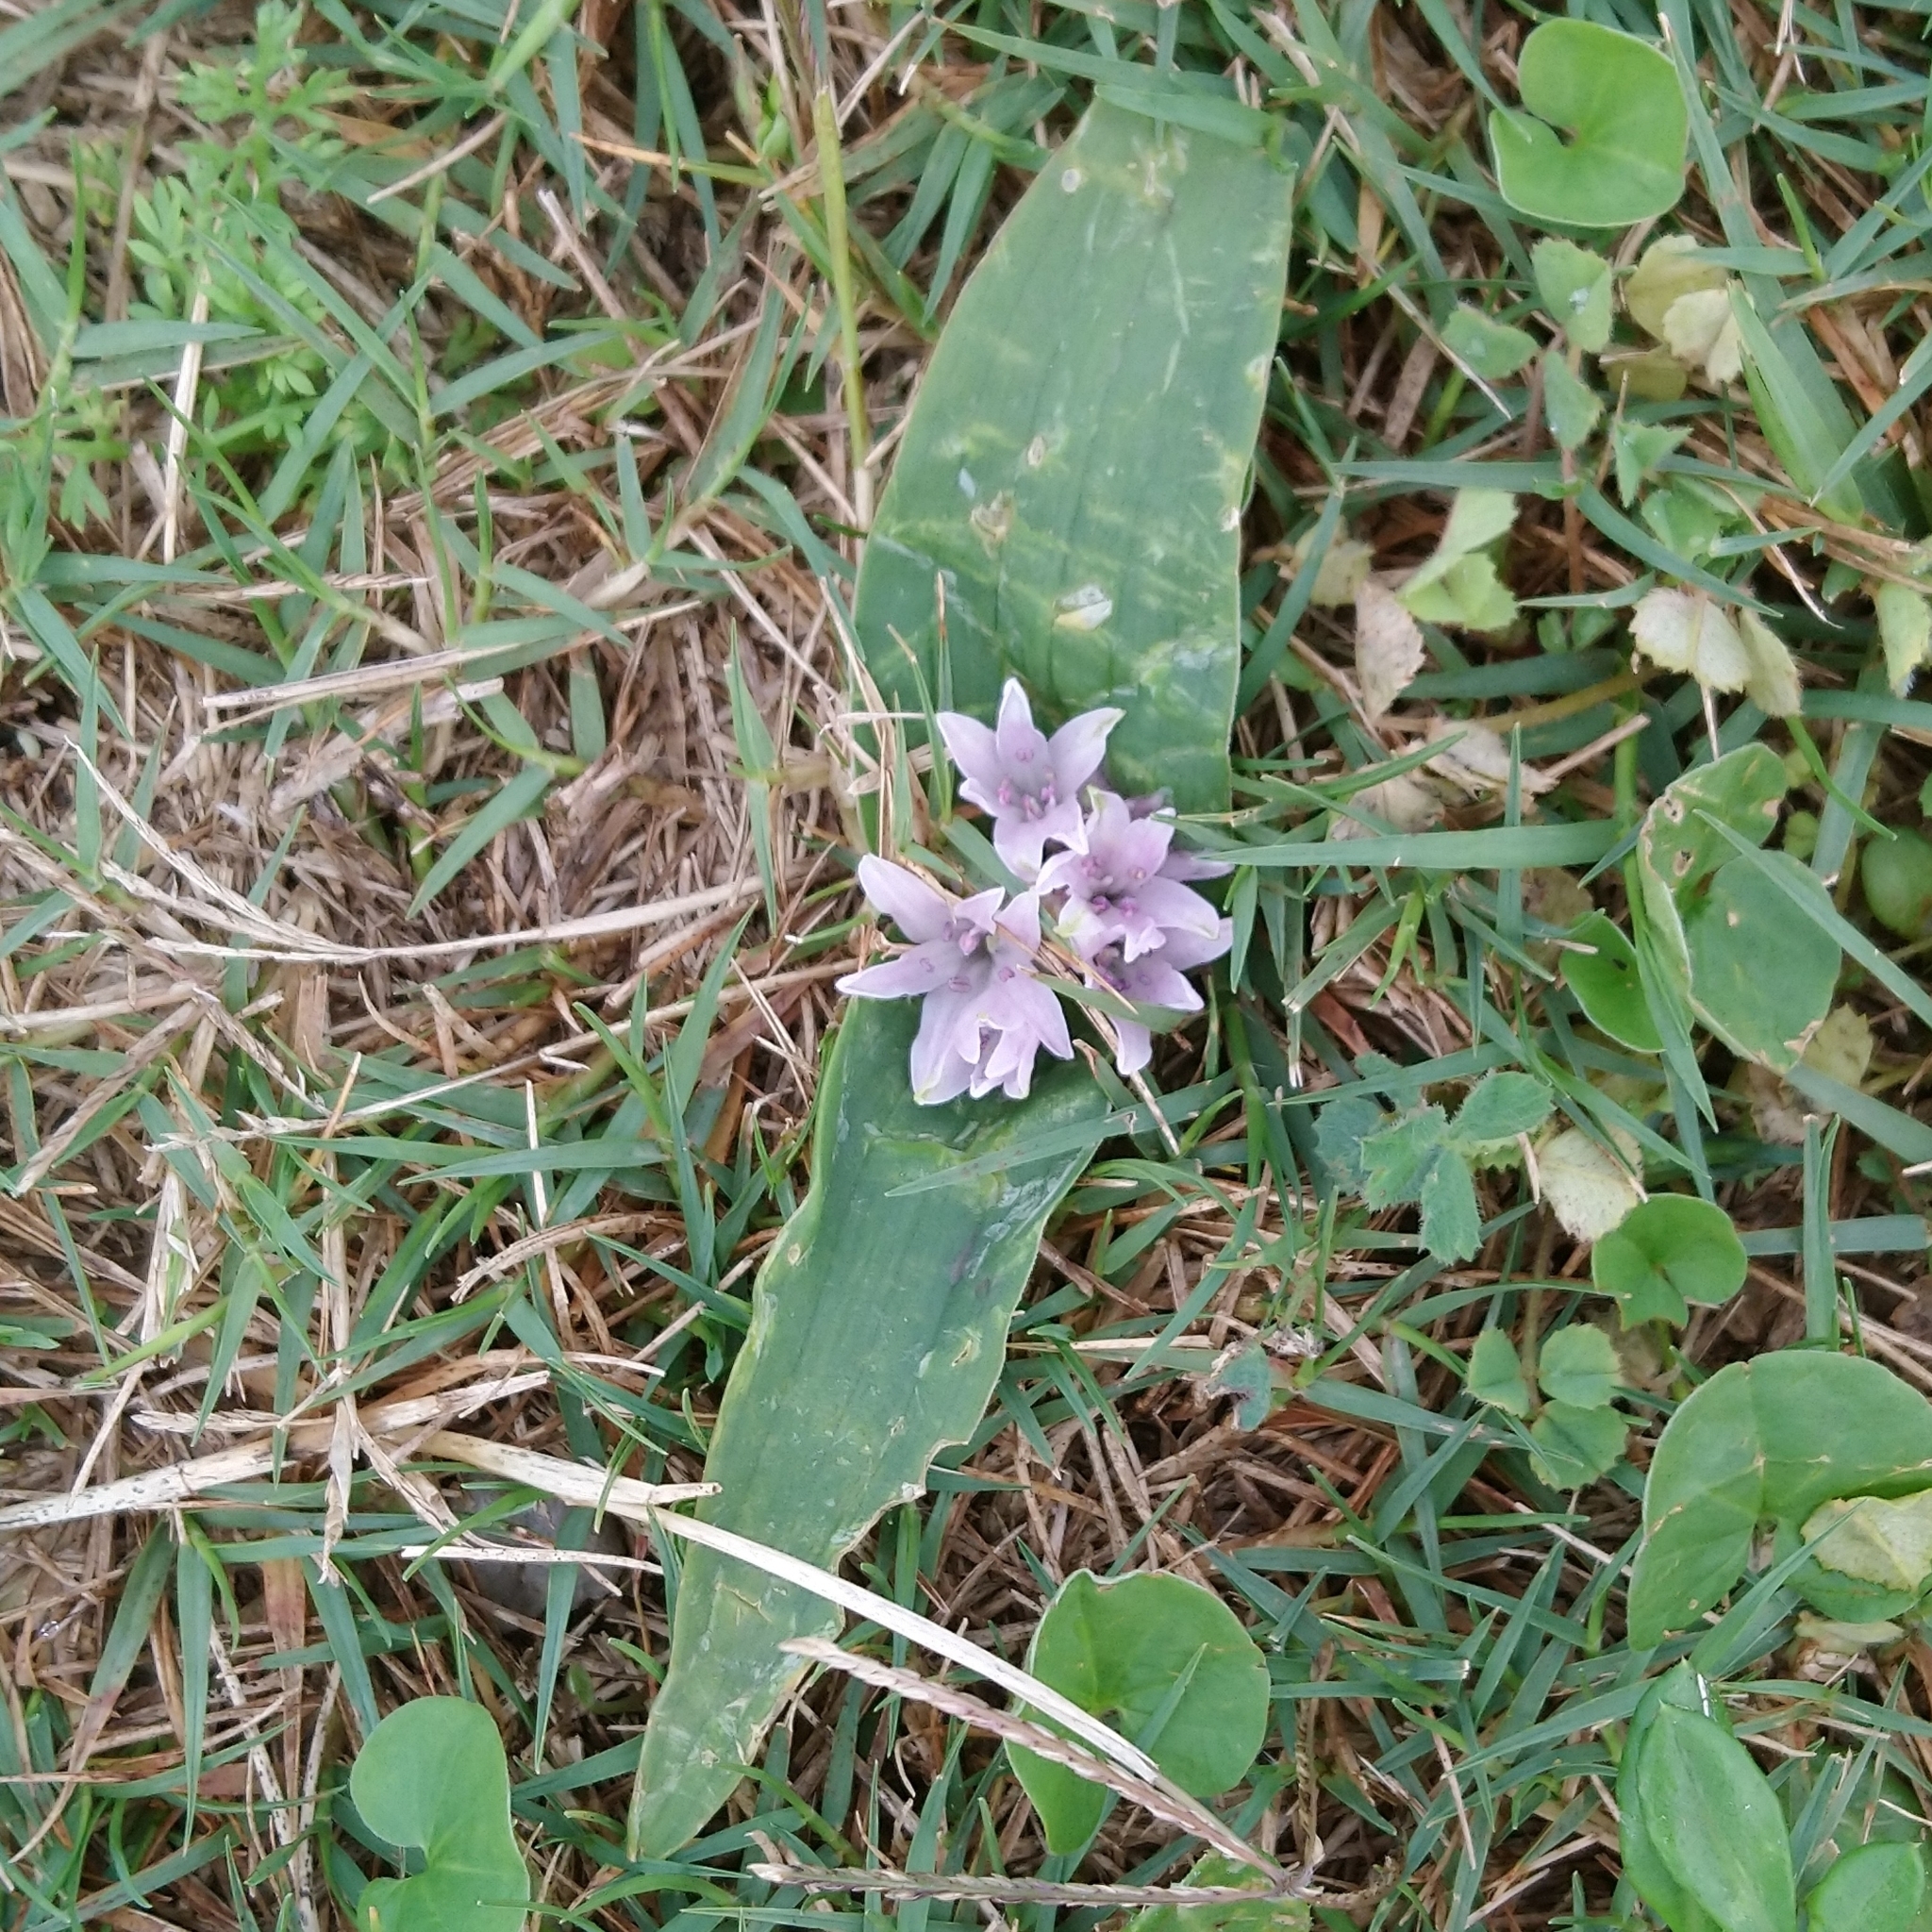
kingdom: Plantae
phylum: Tracheophyta
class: Liliopsida
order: Asparagales
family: Asparagaceae
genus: Lachenalia
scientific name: Lachenalia ensifolia
